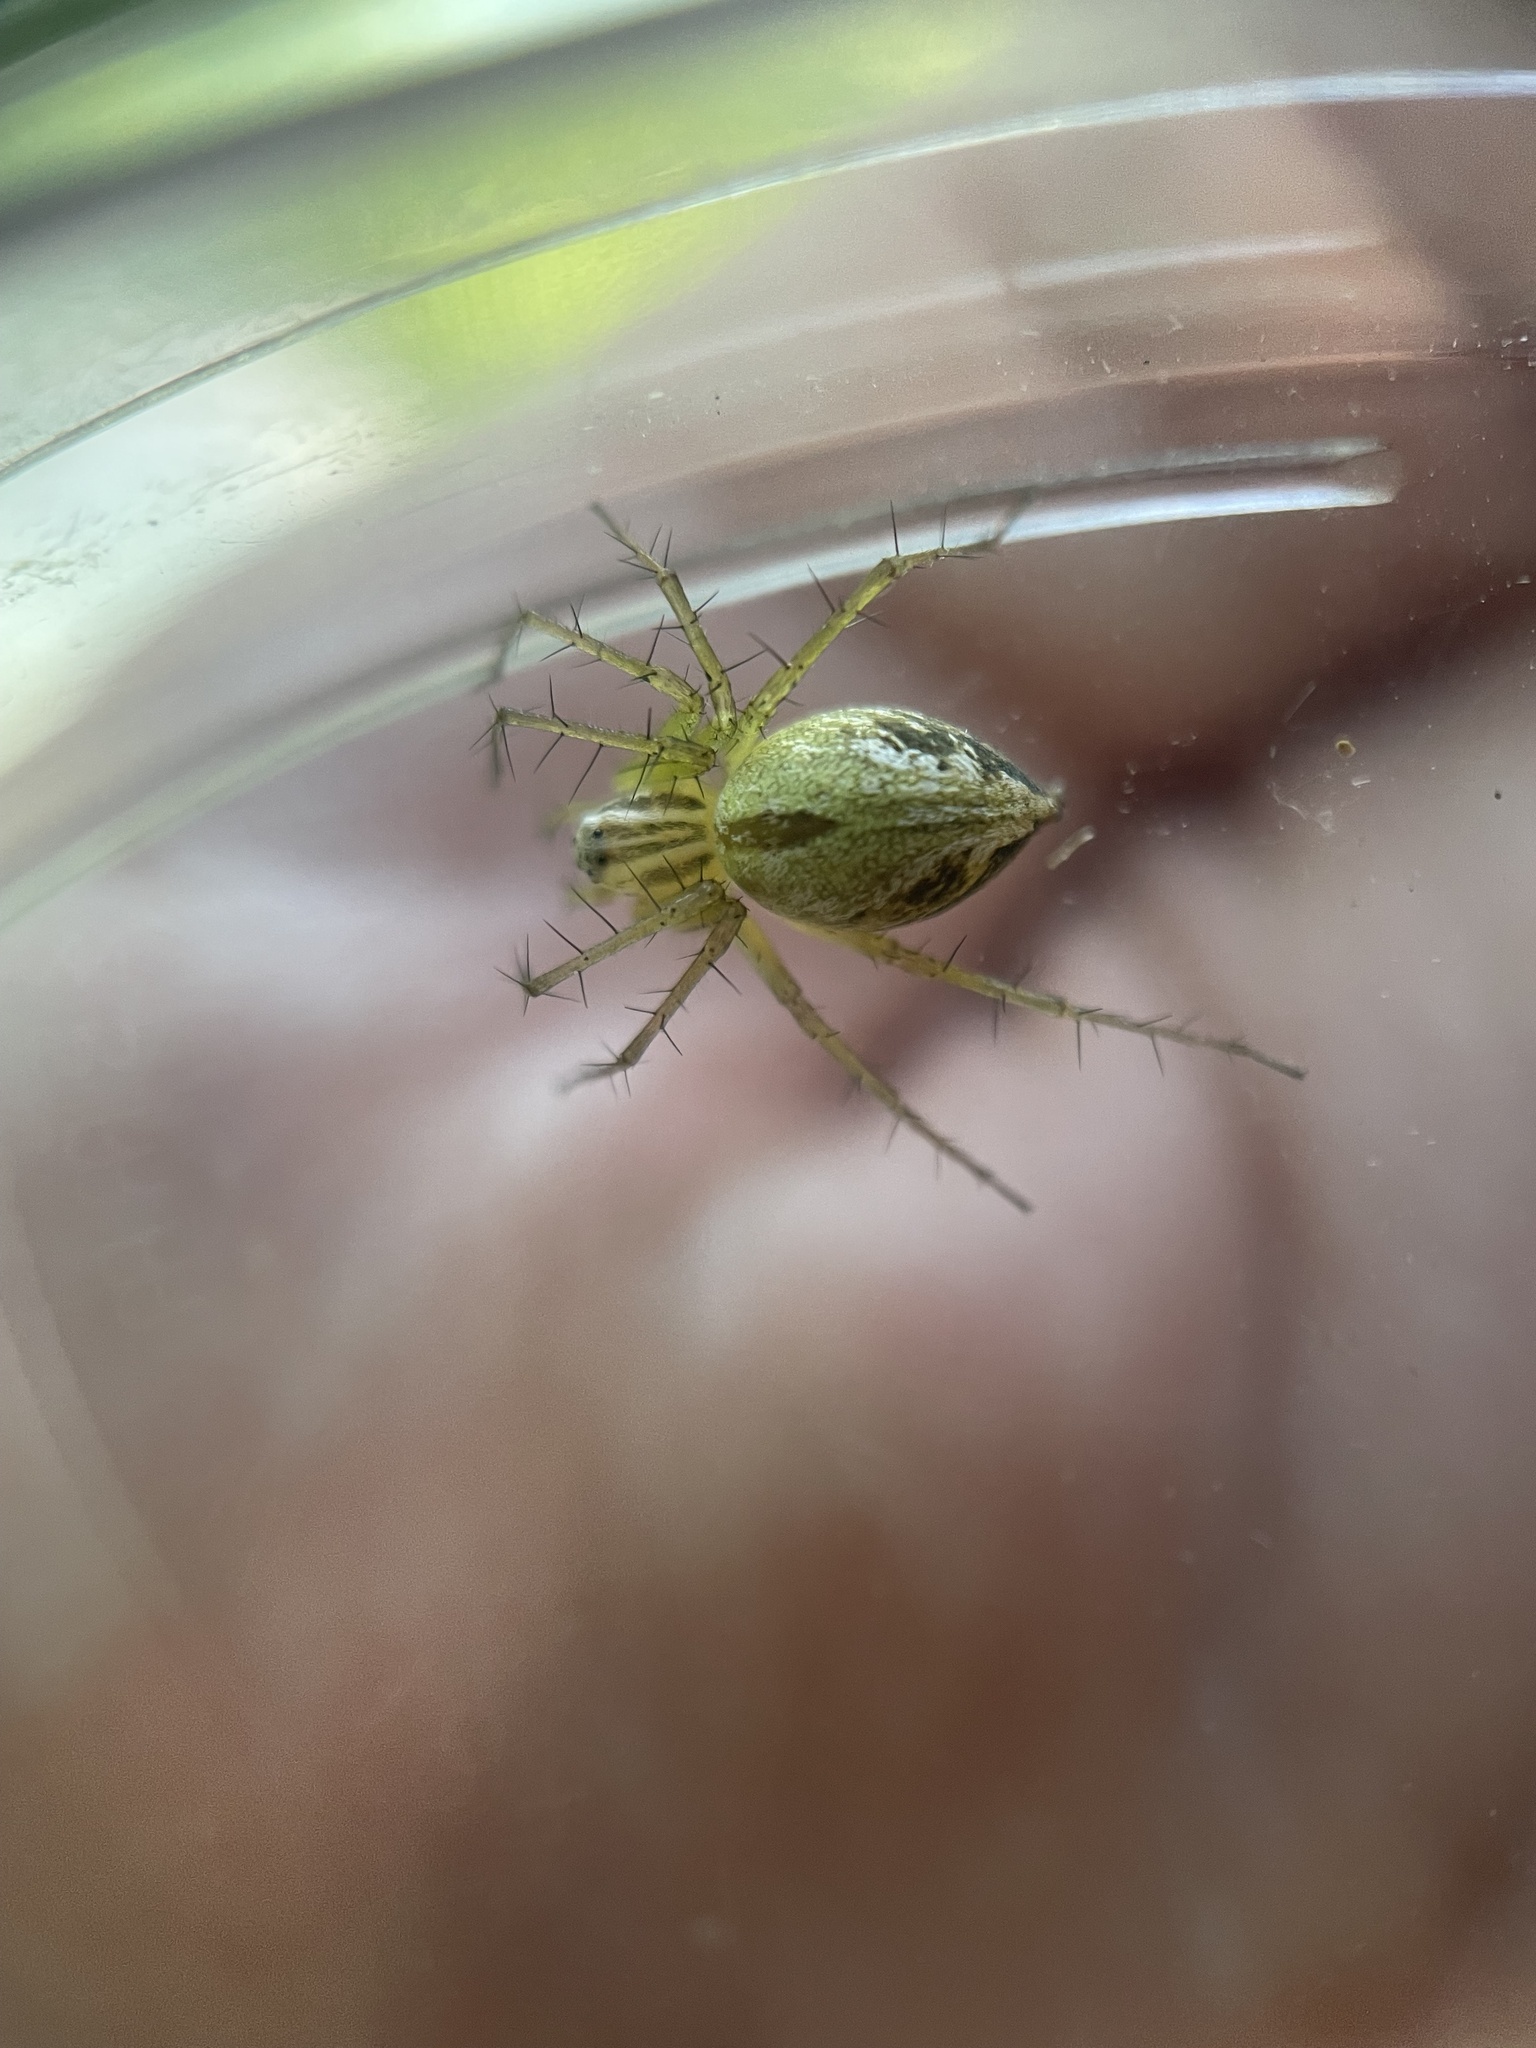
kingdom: Animalia
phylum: Arthropoda
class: Arachnida
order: Araneae
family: Oxyopidae
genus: Oxyopes
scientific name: Oxyopes salticus
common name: Lynx spiders
